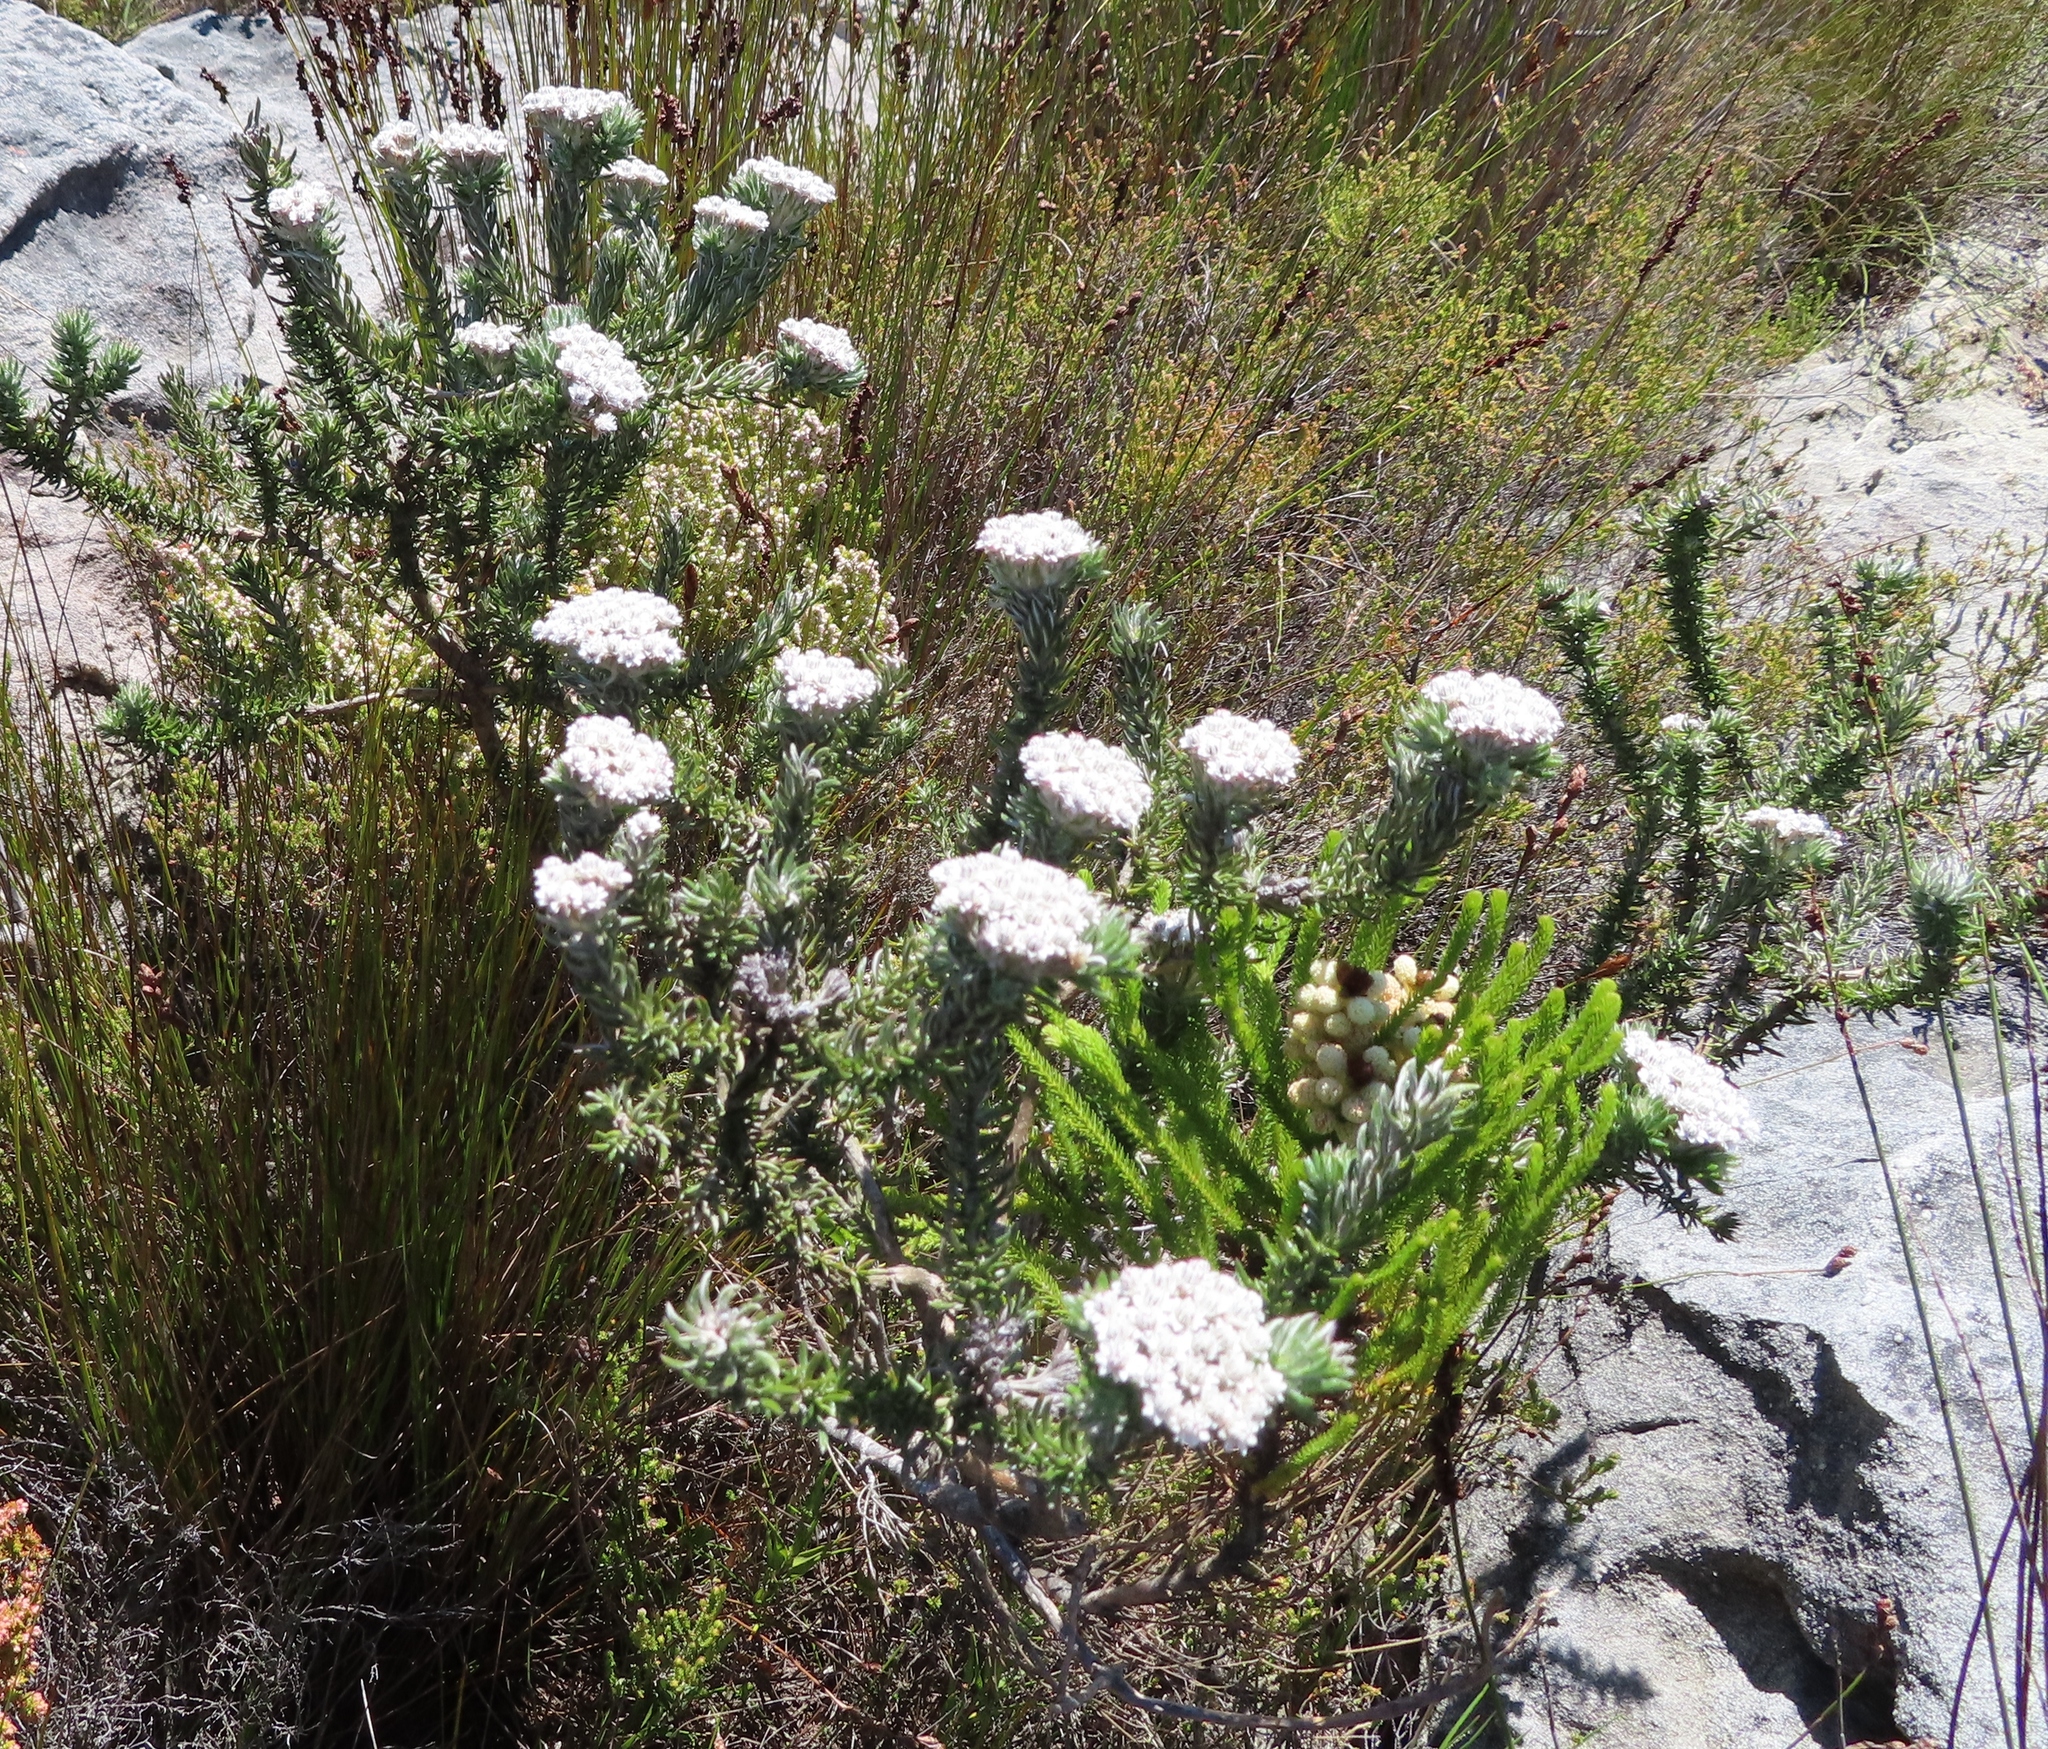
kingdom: Plantae
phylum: Tracheophyta
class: Magnoliopsida
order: Asterales
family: Asteraceae
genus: Metalasia
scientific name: Metalasia lichtensteinii
